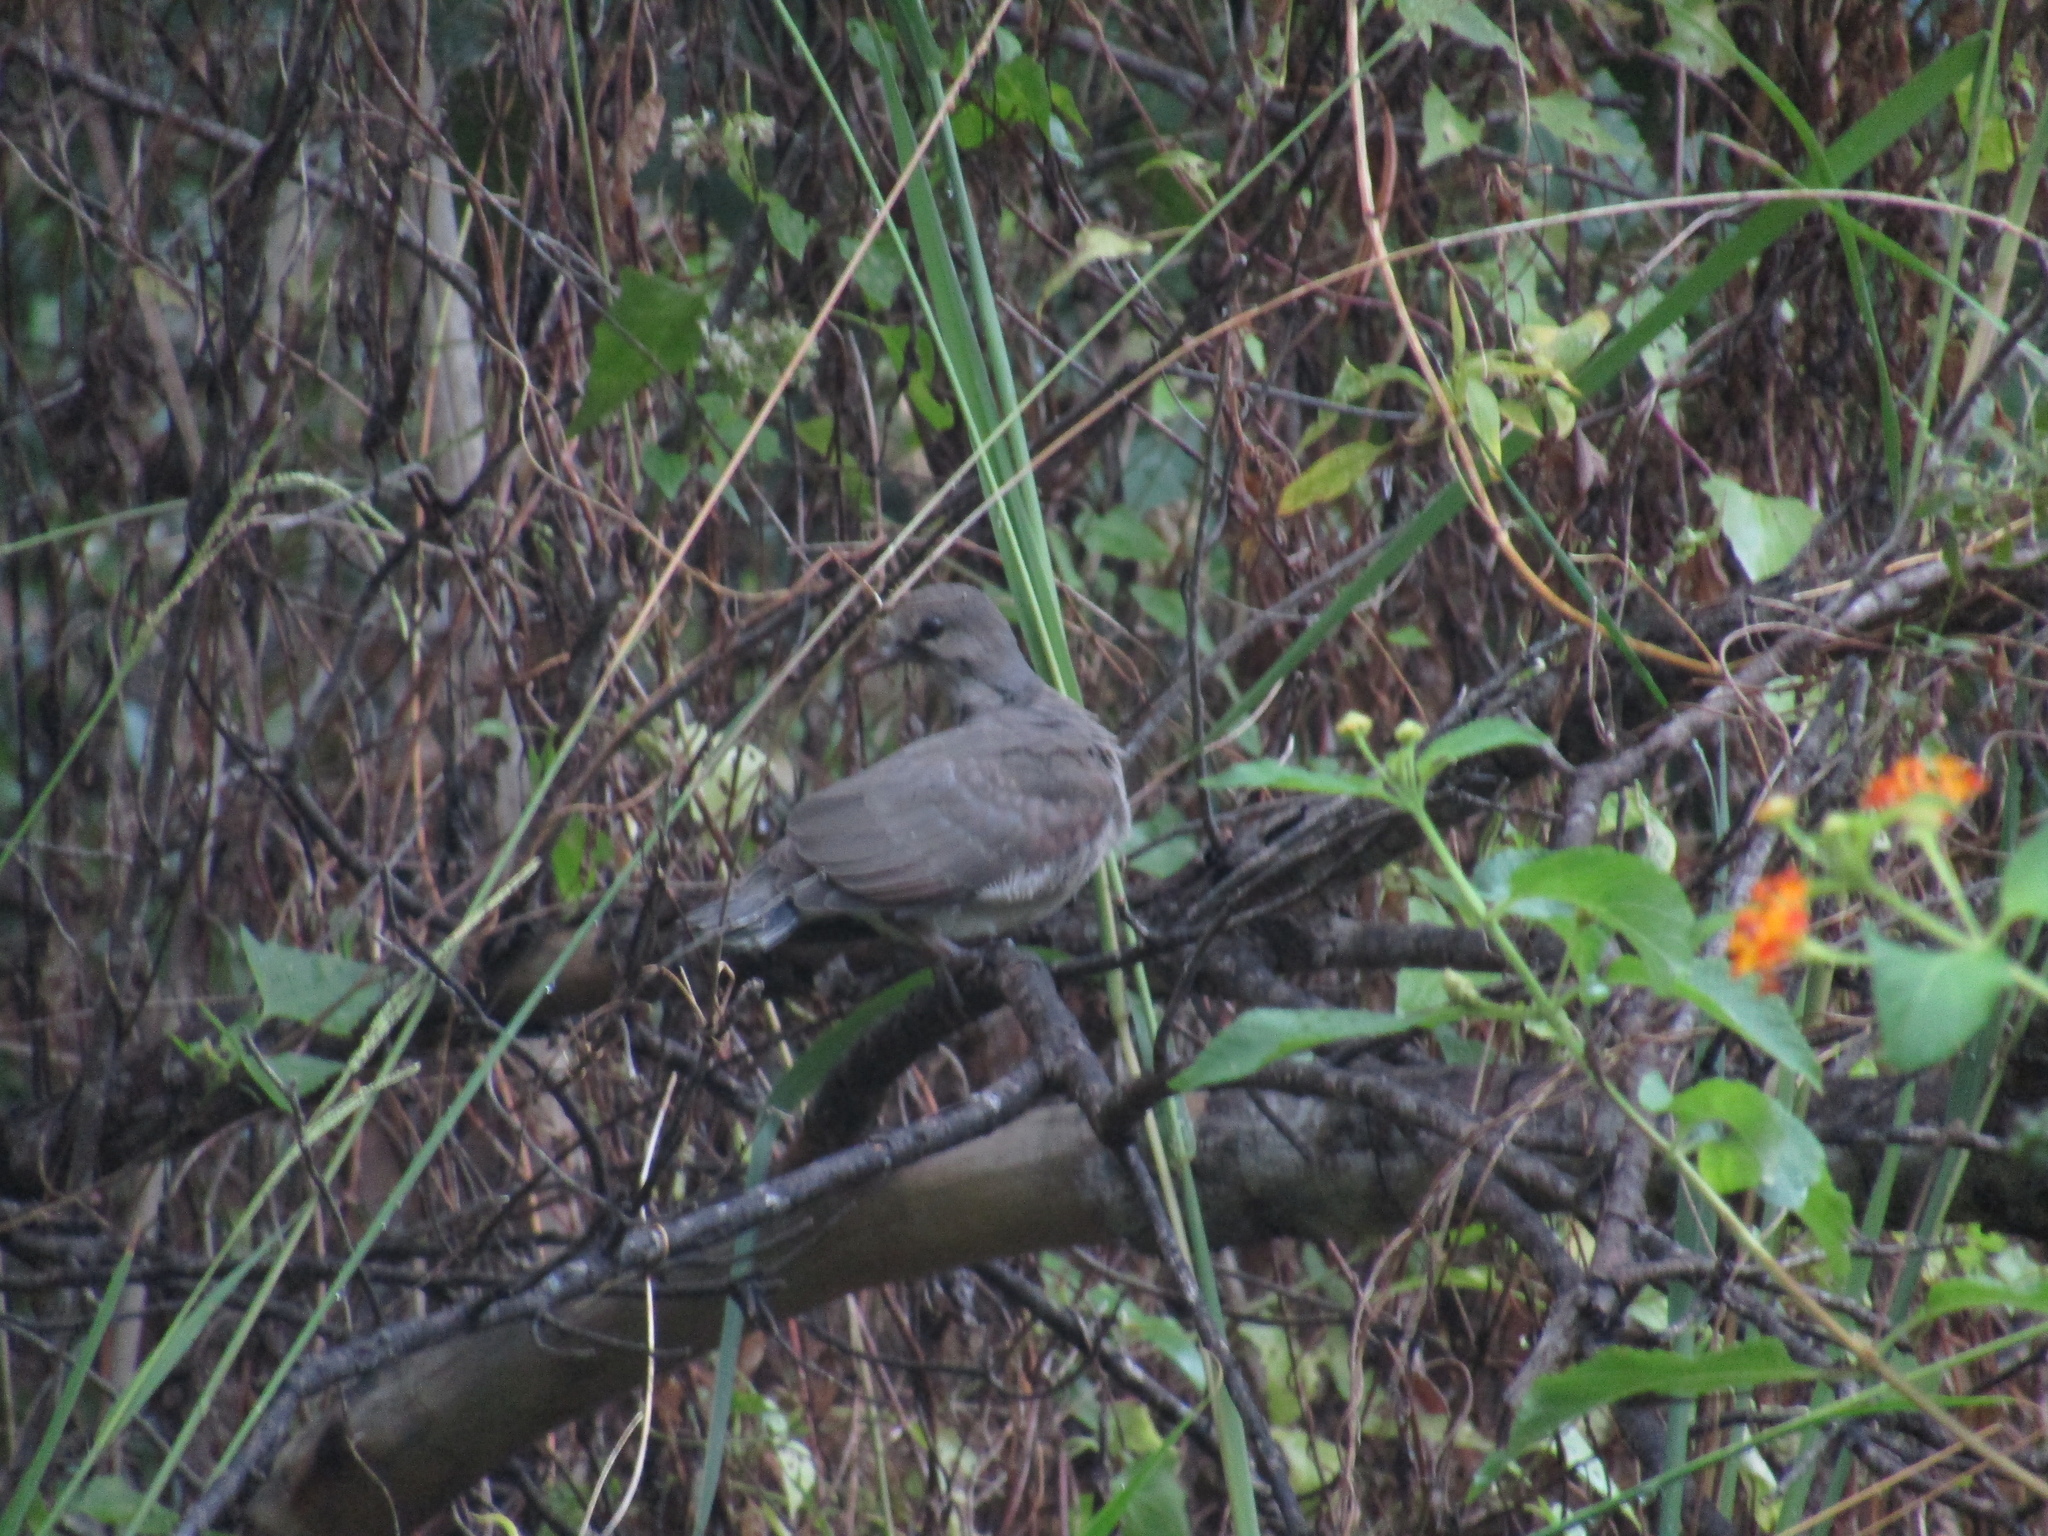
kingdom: Animalia
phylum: Chordata
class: Aves
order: Columbiformes
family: Columbidae
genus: Leptotila
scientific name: Leptotila verreauxi
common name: White-tipped dove
